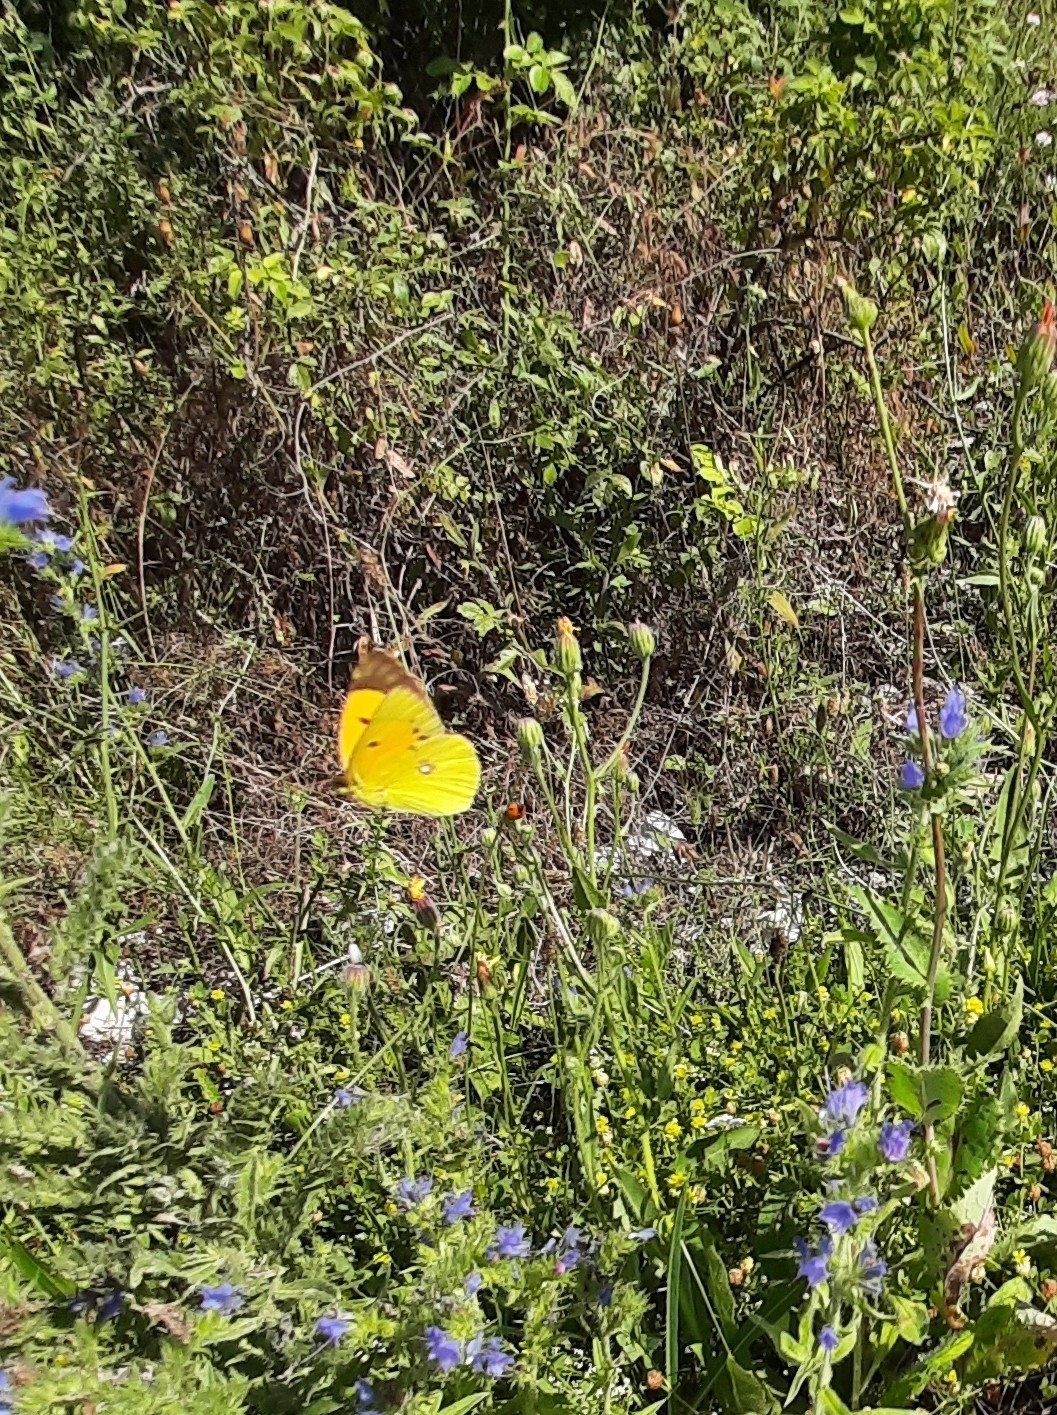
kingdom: Animalia
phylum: Arthropoda
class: Insecta
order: Lepidoptera
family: Pieridae
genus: Colias
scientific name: Colias croceus
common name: Clouded yellow
